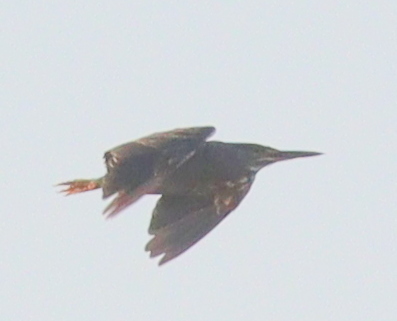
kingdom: Animalia
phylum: Chordata
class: Aves
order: Pelecaniformes
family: Ardeidae
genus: Butorides
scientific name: Butorides striata
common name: Striated heron
